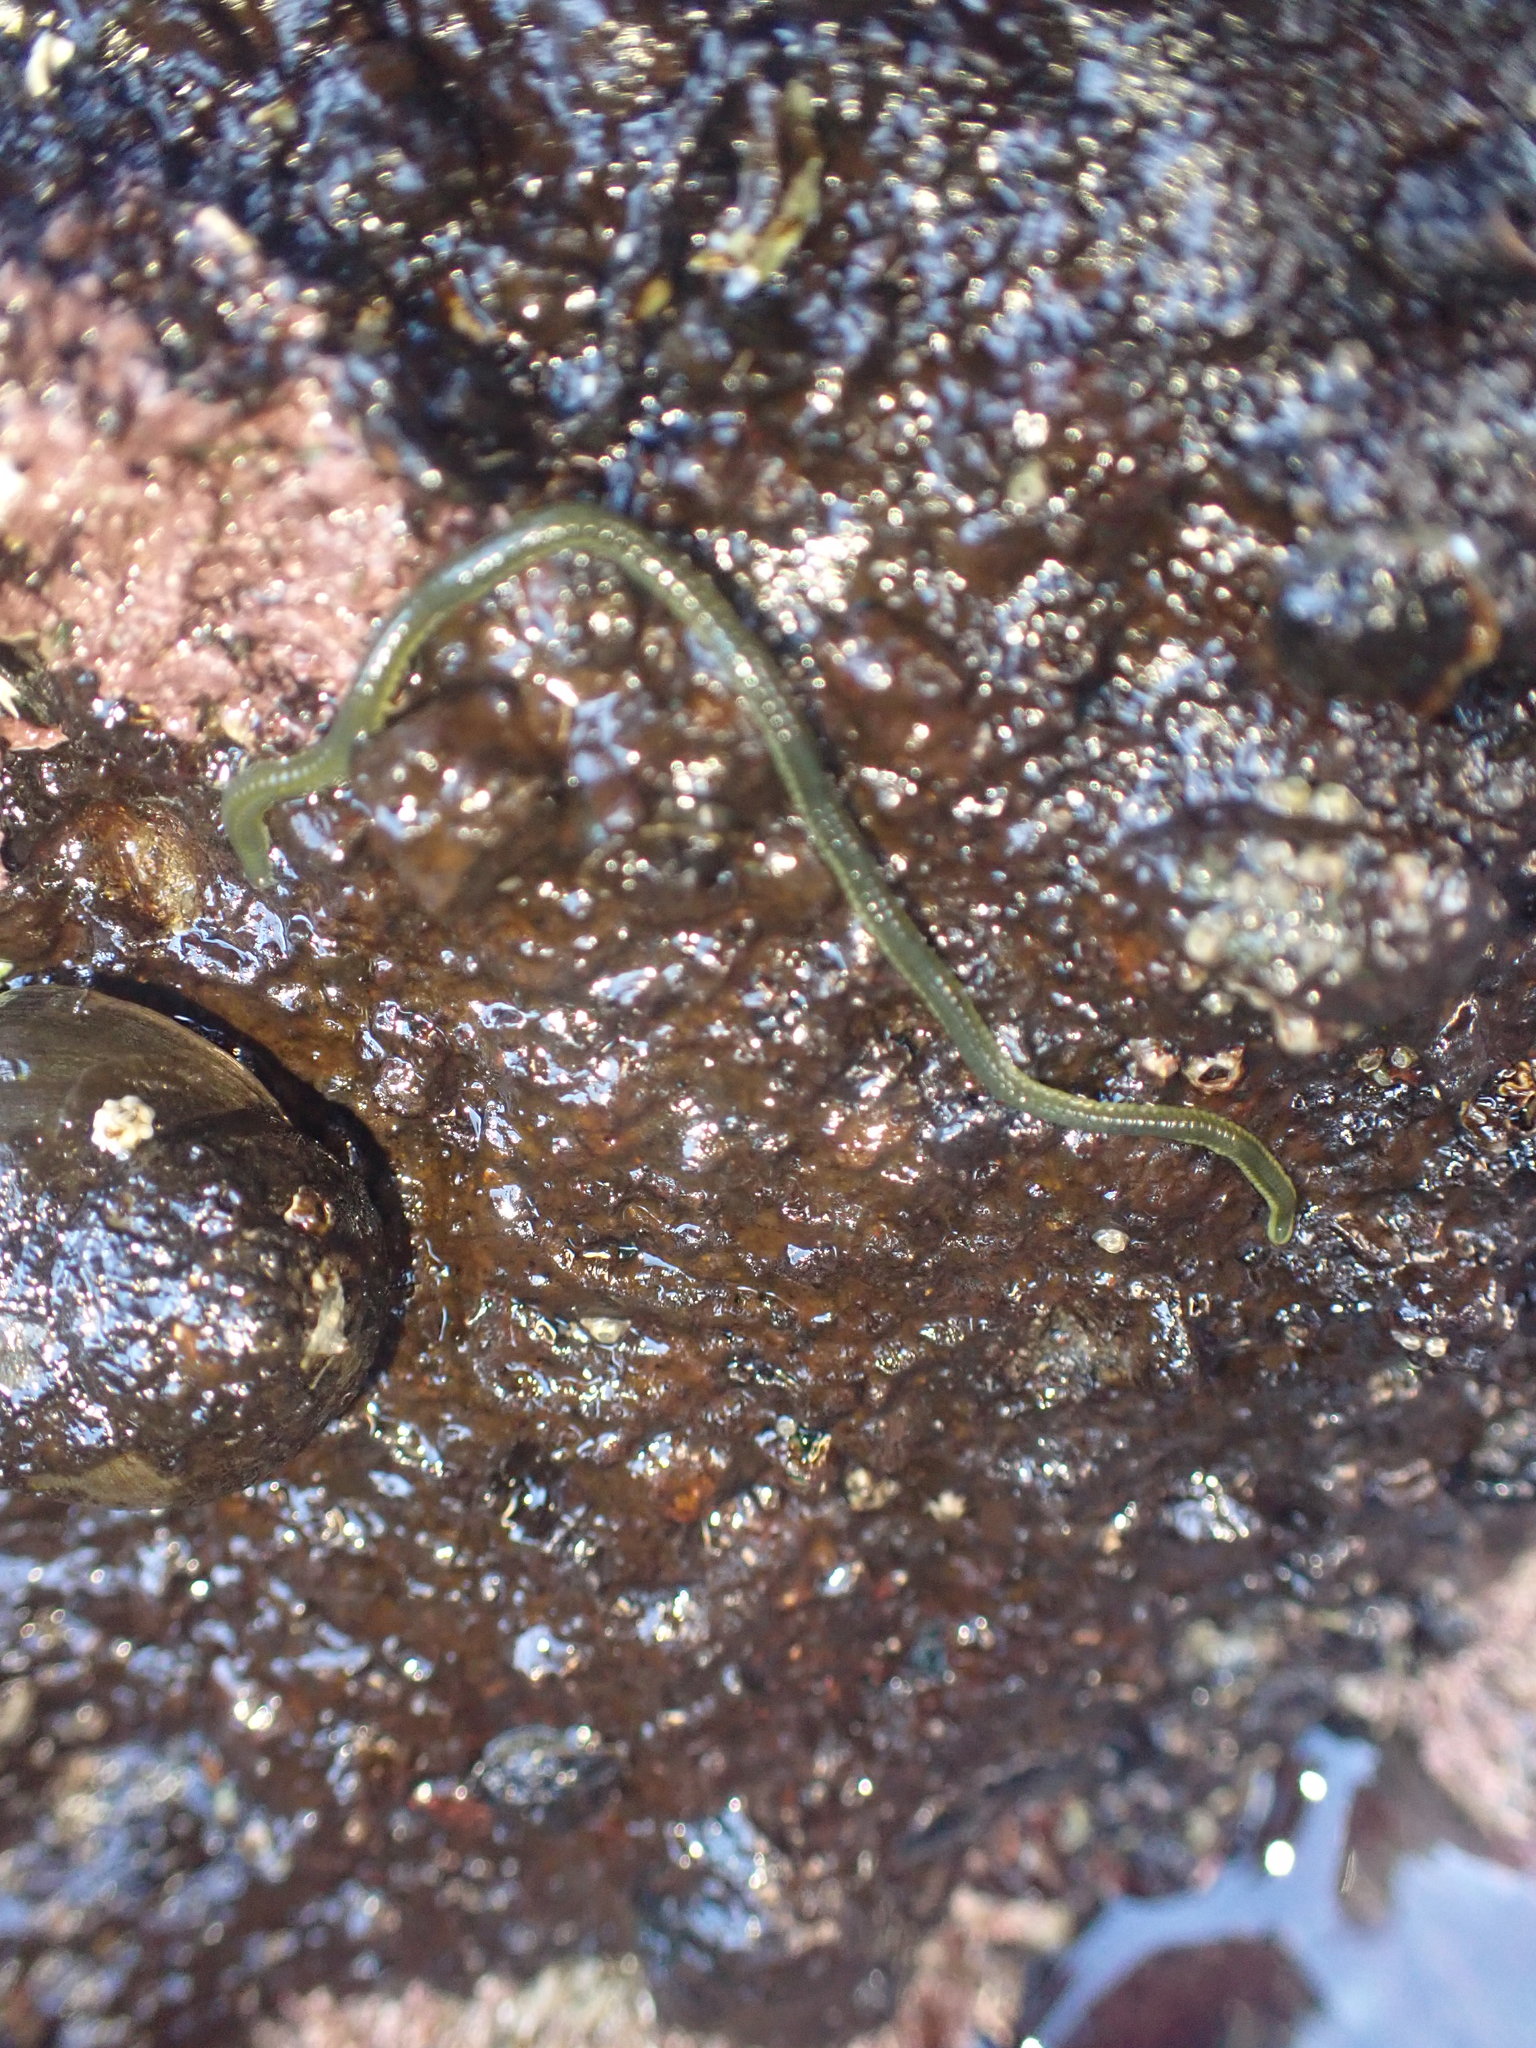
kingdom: Animalia
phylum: Annelida
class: Polychaeta
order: Phyllodocida
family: Phyllodocidae
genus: Eulalia
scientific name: Eulalia microphylla
